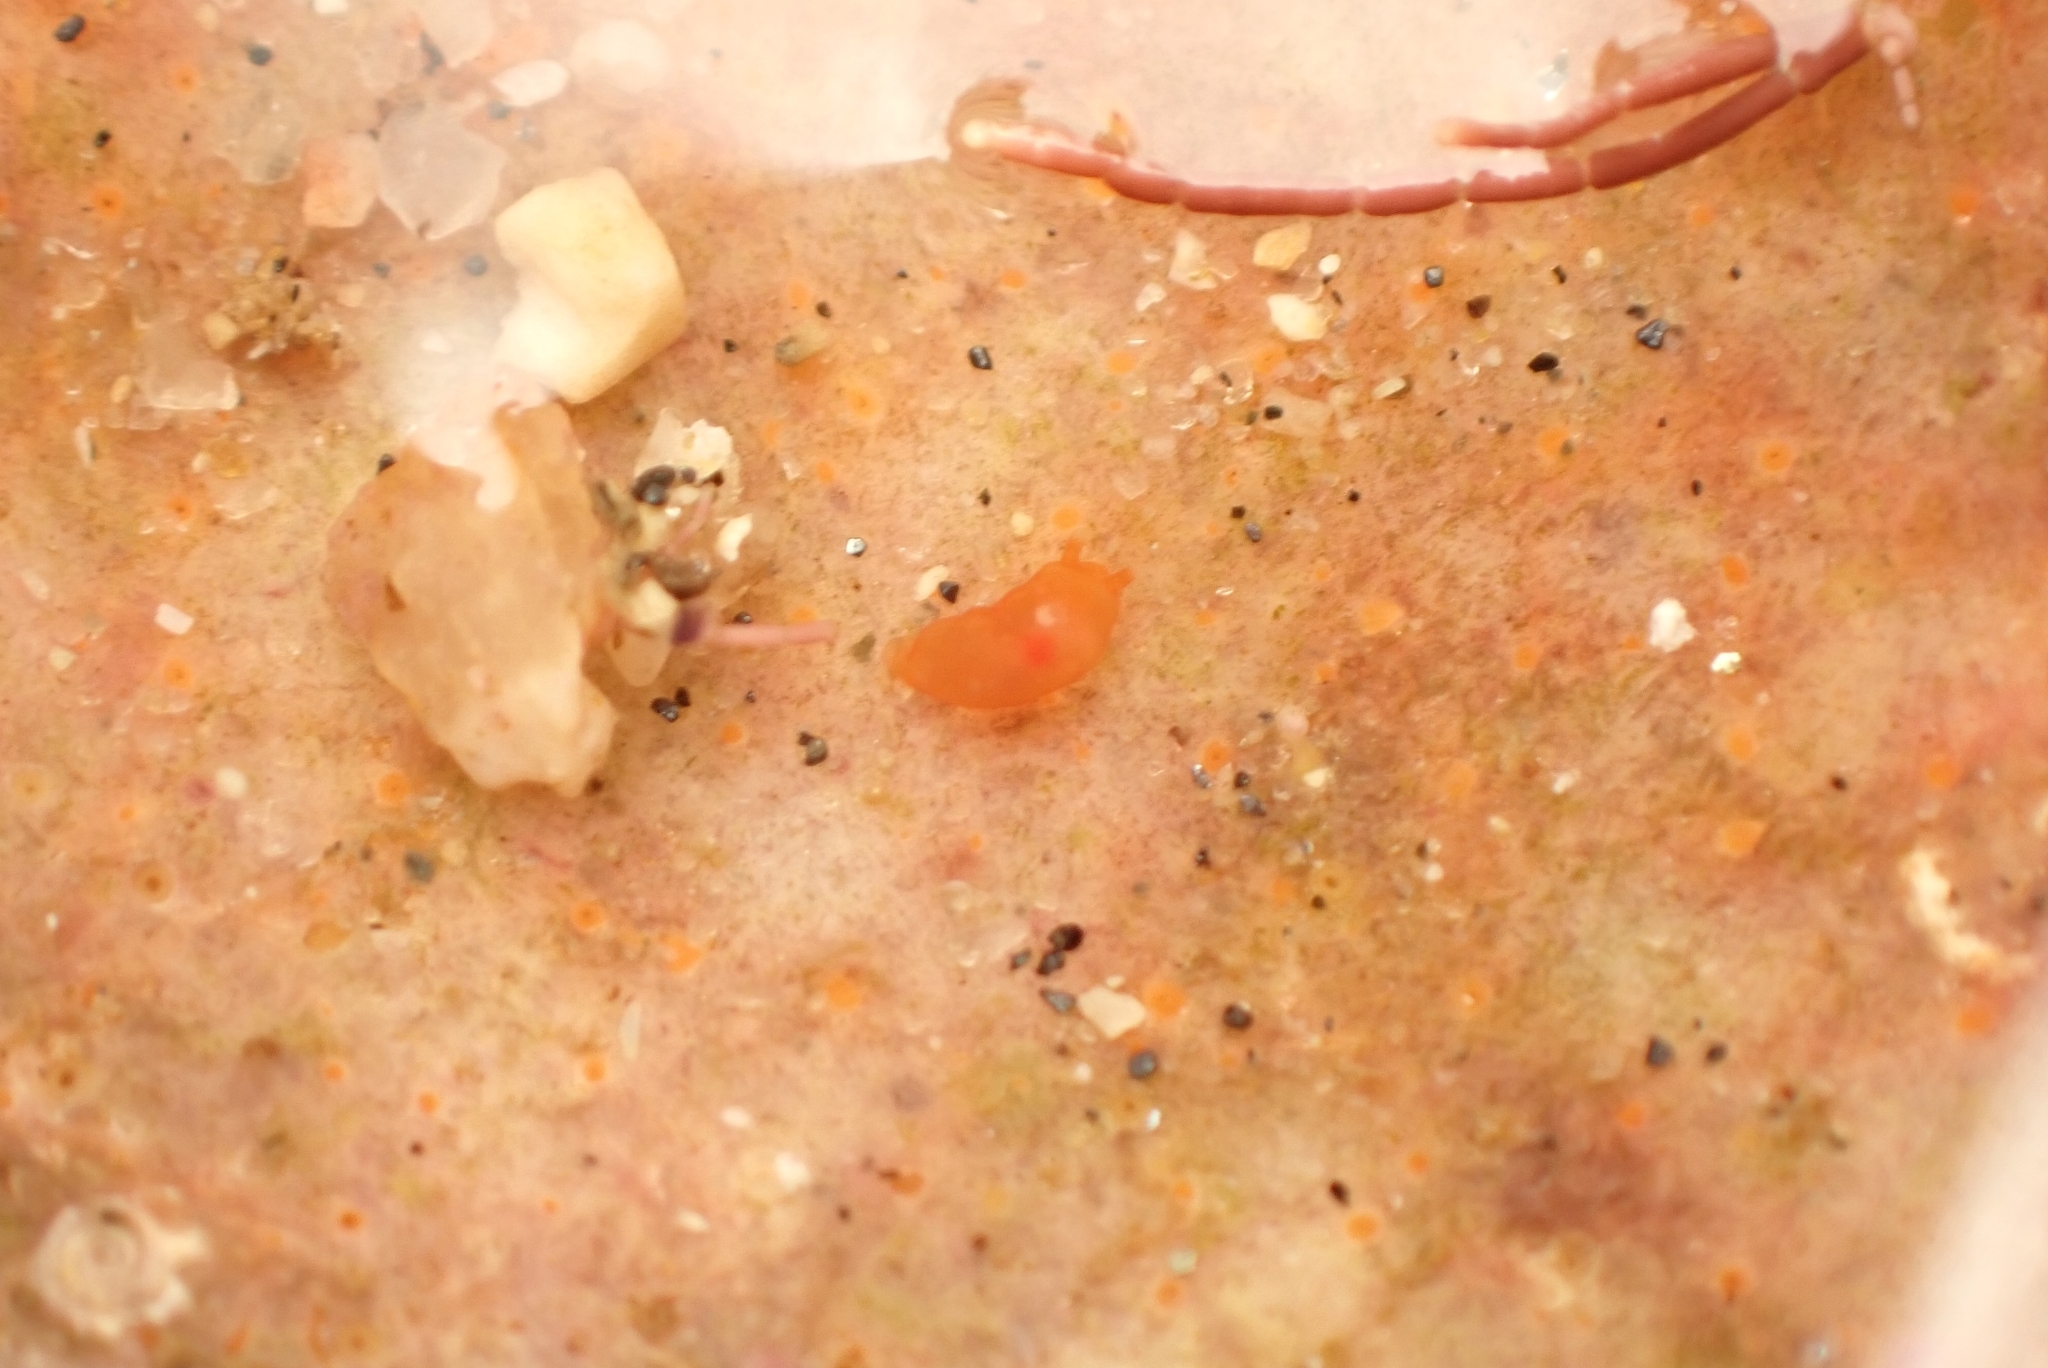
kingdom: Animalia
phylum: Mollusca
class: Gastropoda
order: Nudibranchia
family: Okadaiidae
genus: Vayssierea
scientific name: Vayssierea felis
